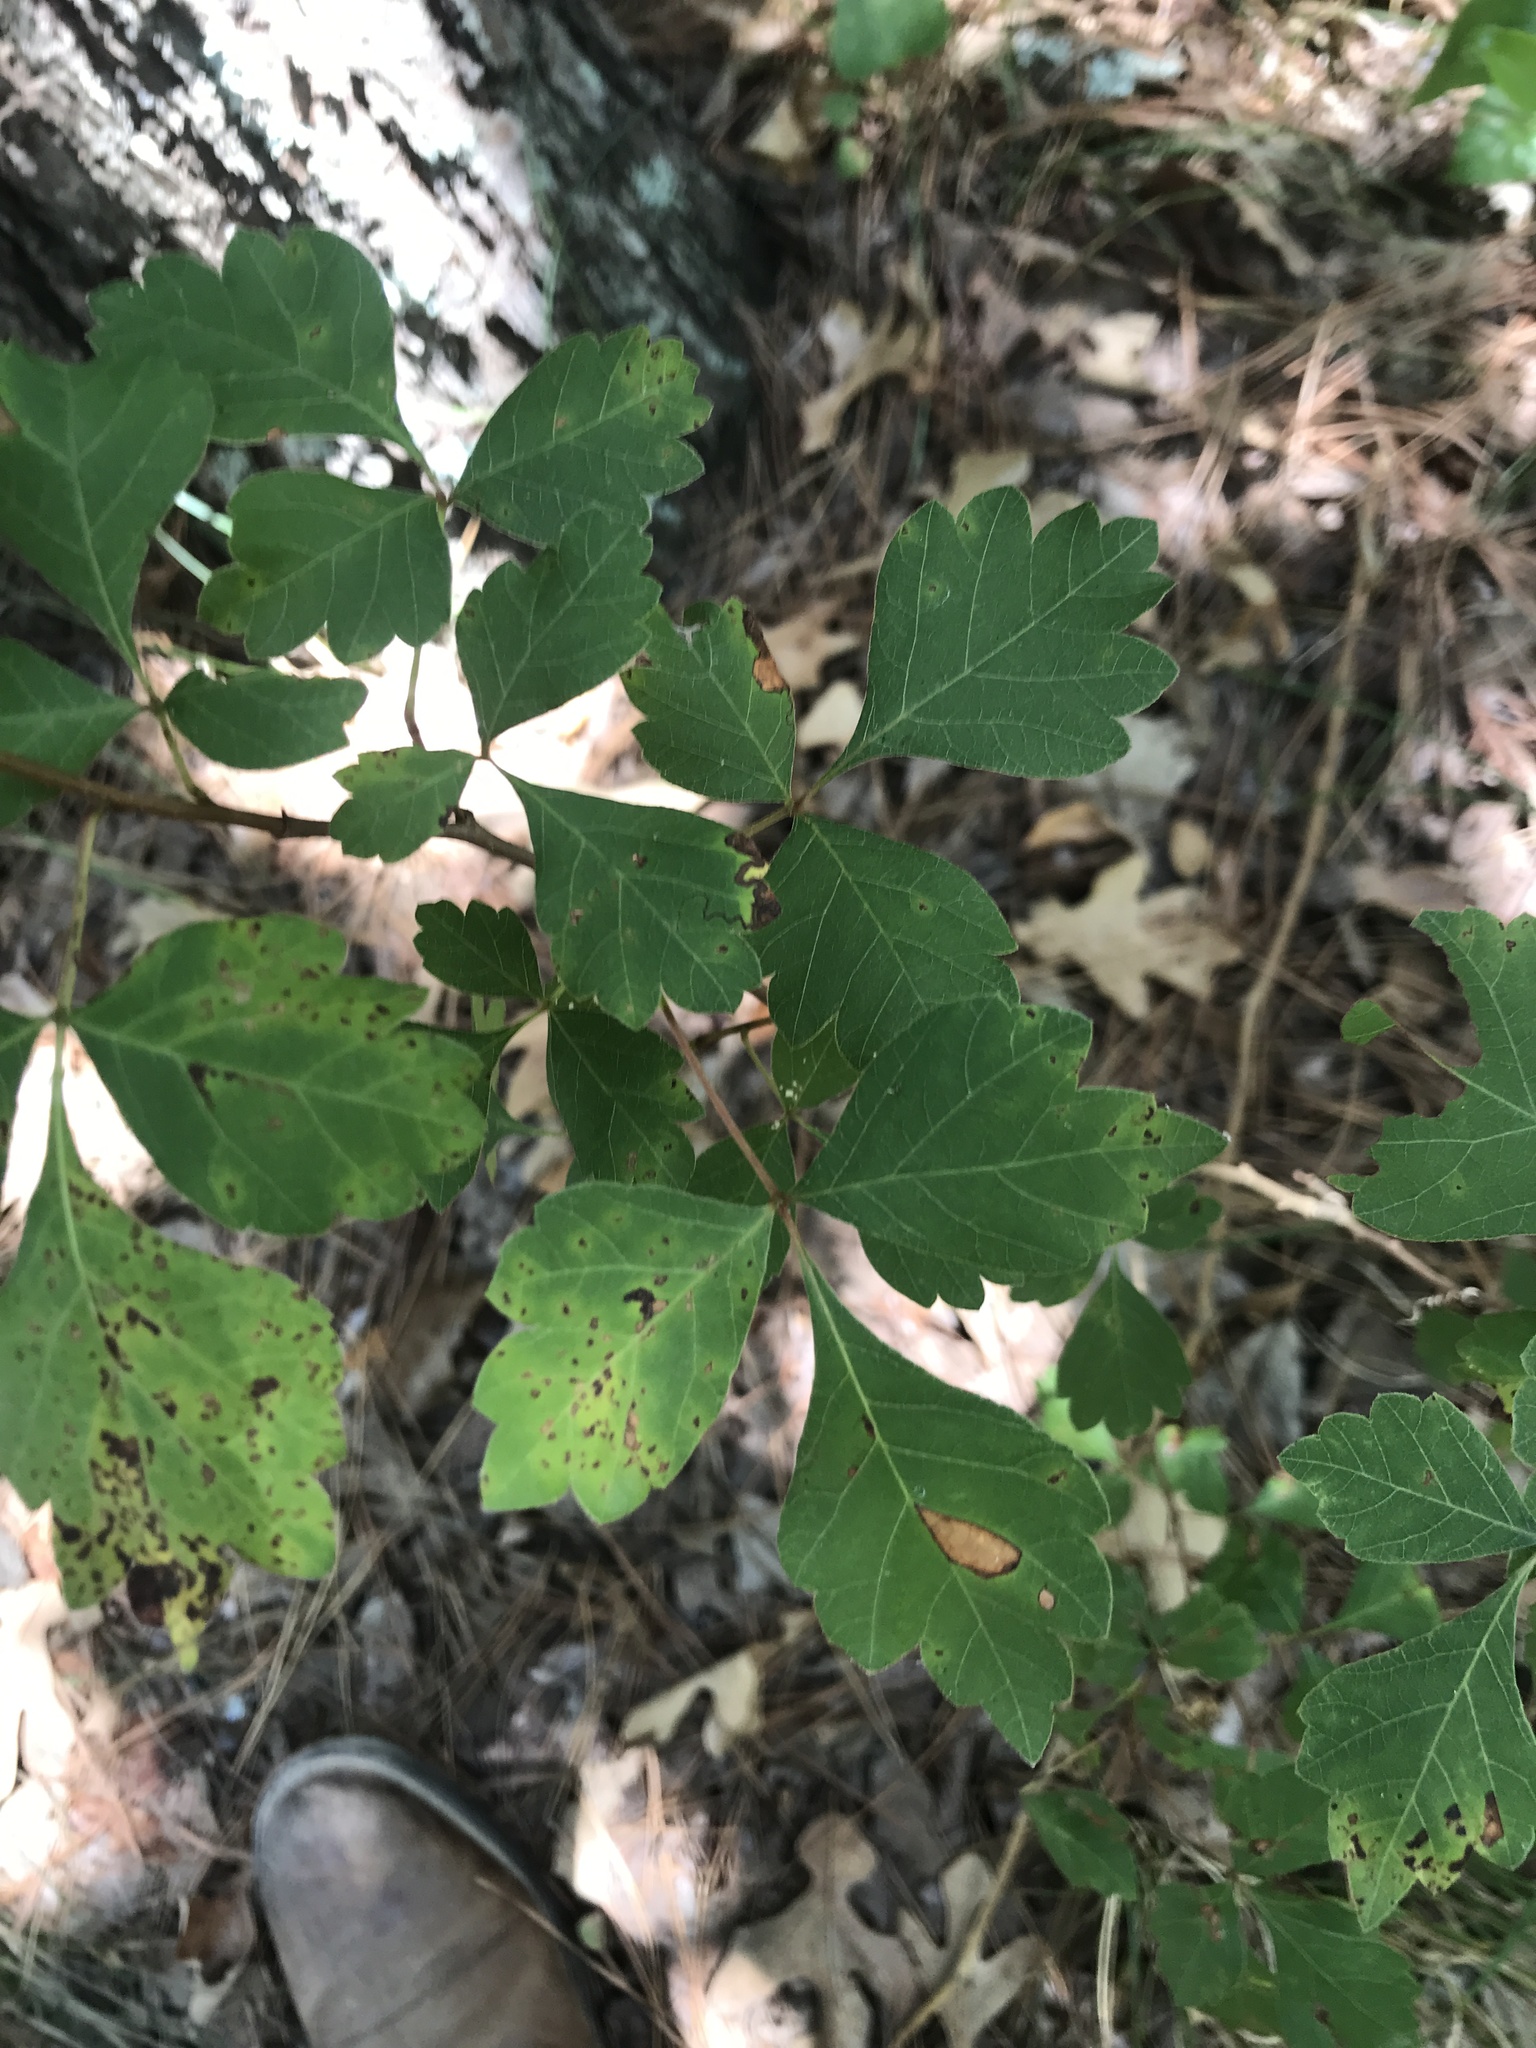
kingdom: Plantae
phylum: Tracheophyta
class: Magnoliopsida
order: Sapindales
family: Anacardiaceae
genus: Rhus
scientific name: Rhus aromatica
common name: Aromatic sumac
